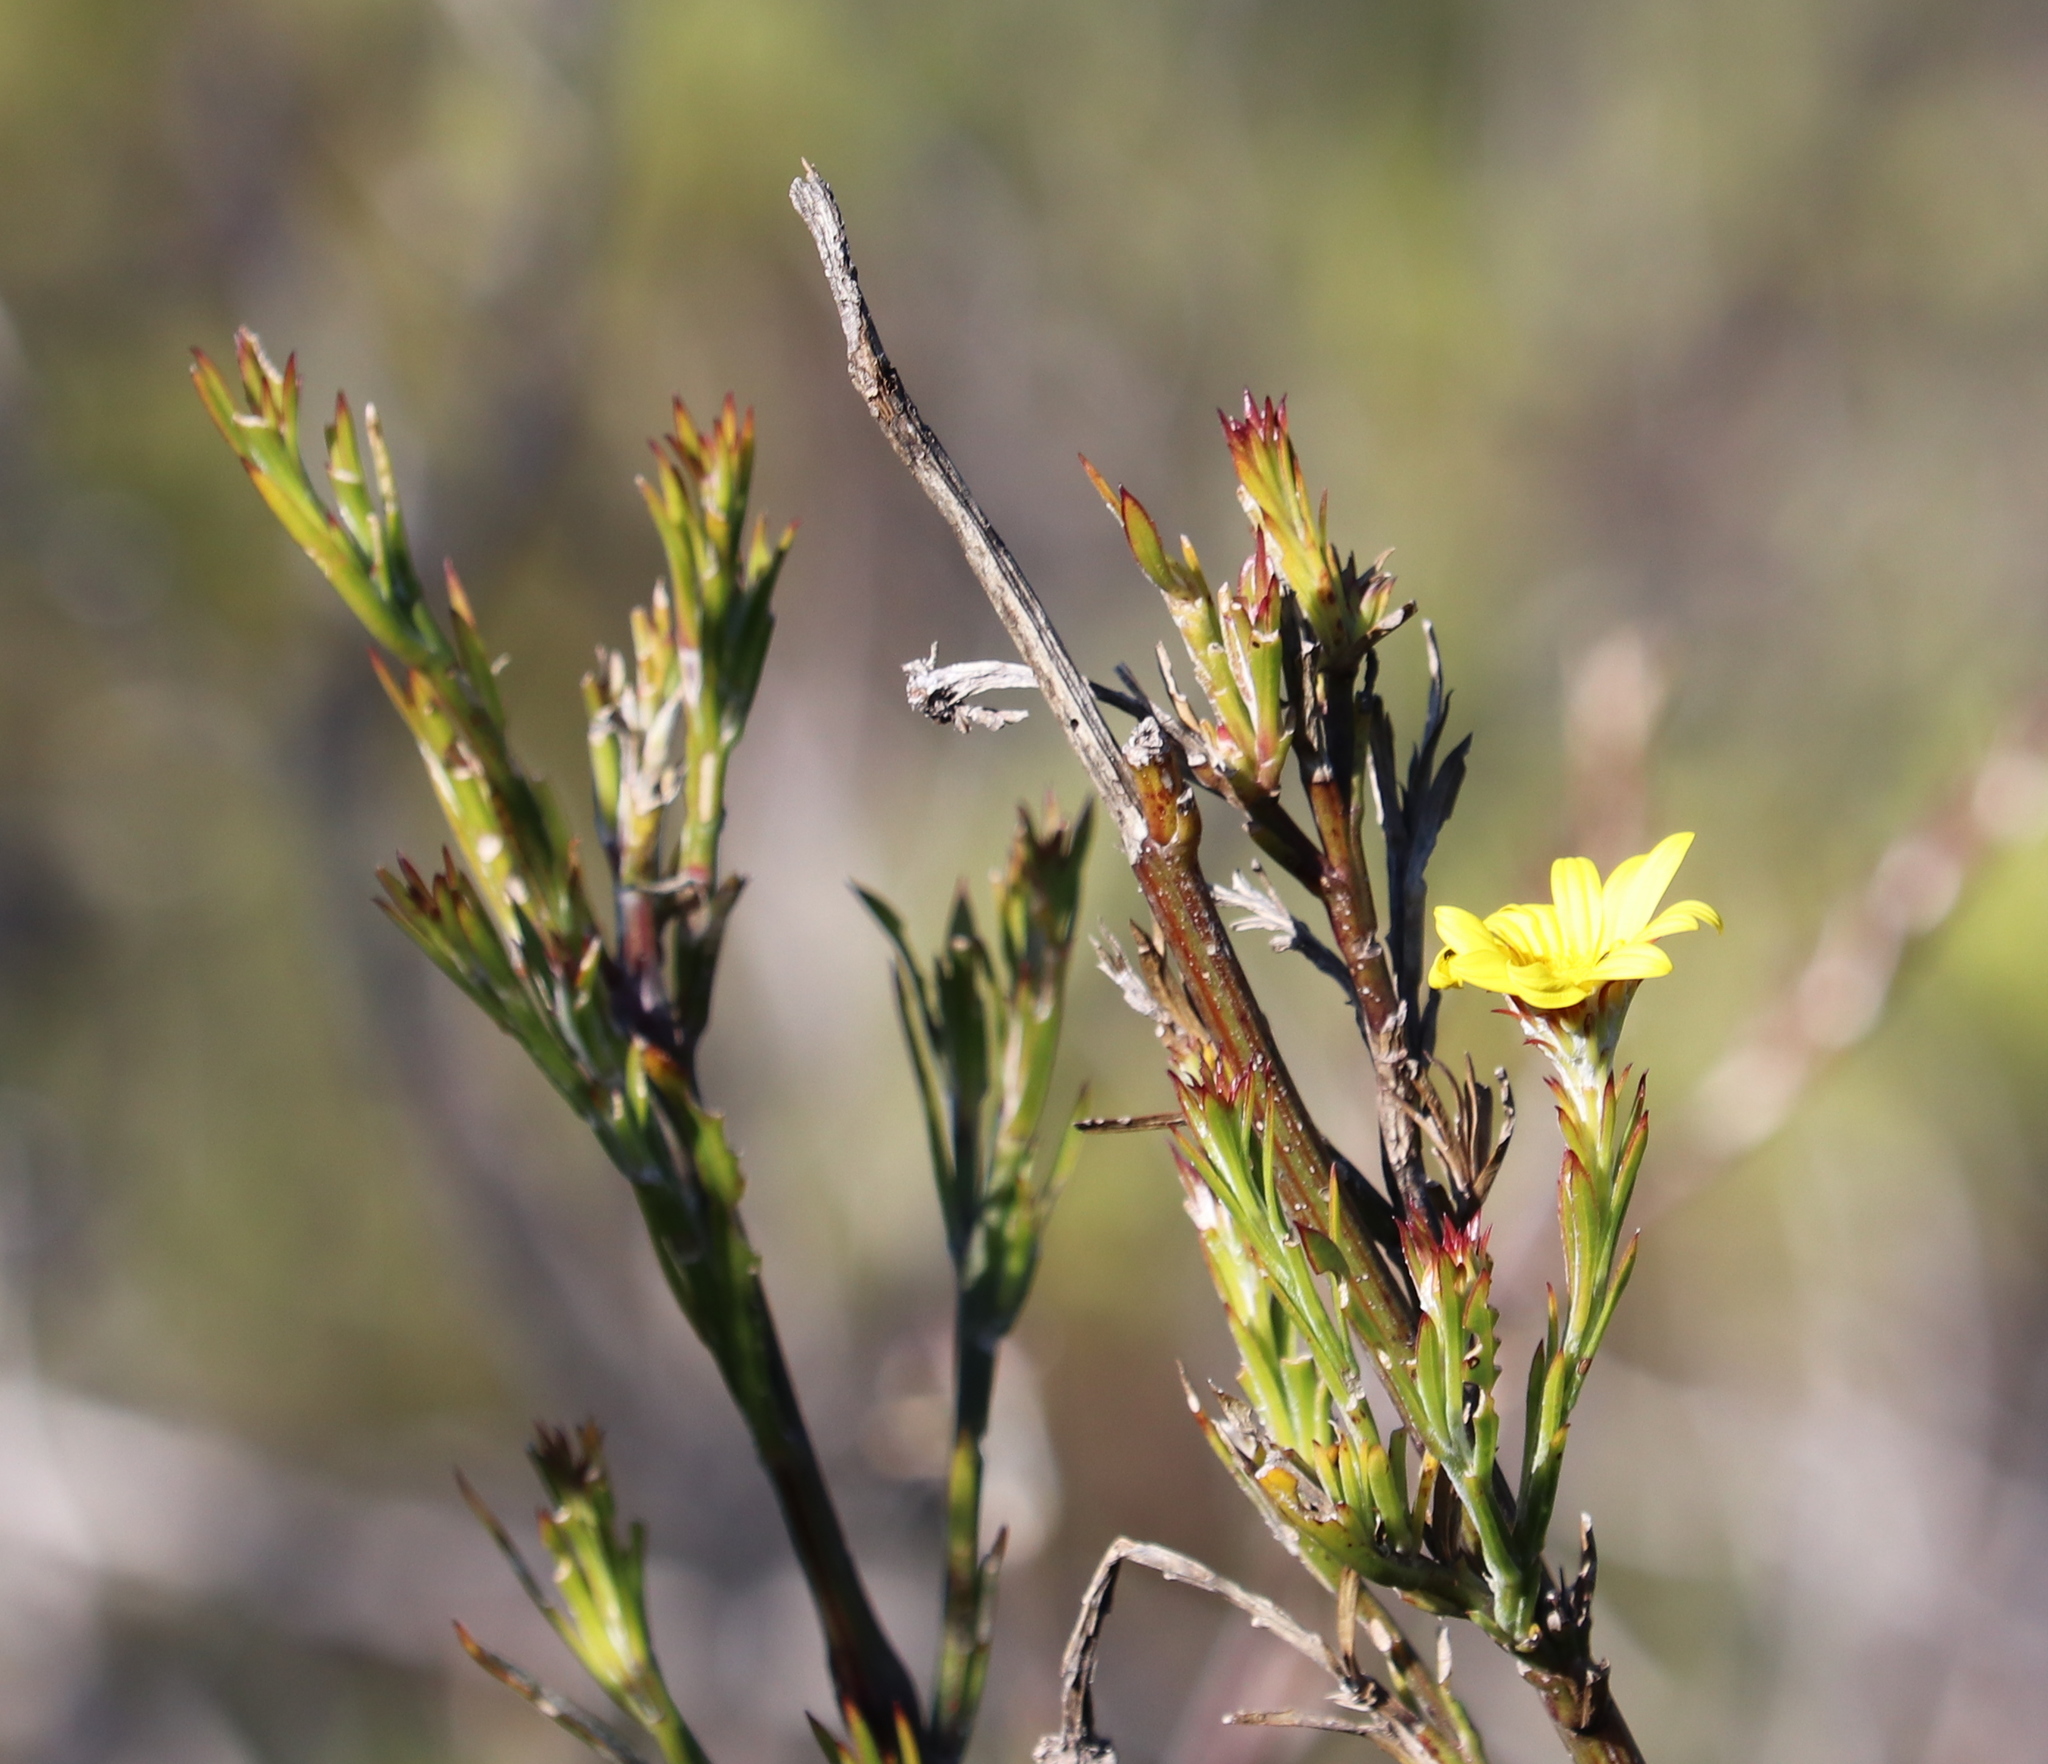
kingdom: Plantae
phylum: Tracheophyta
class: Magnoliopsida
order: Asterales
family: Asteraceae
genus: Osteospermum
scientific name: Osteospermum junceum
